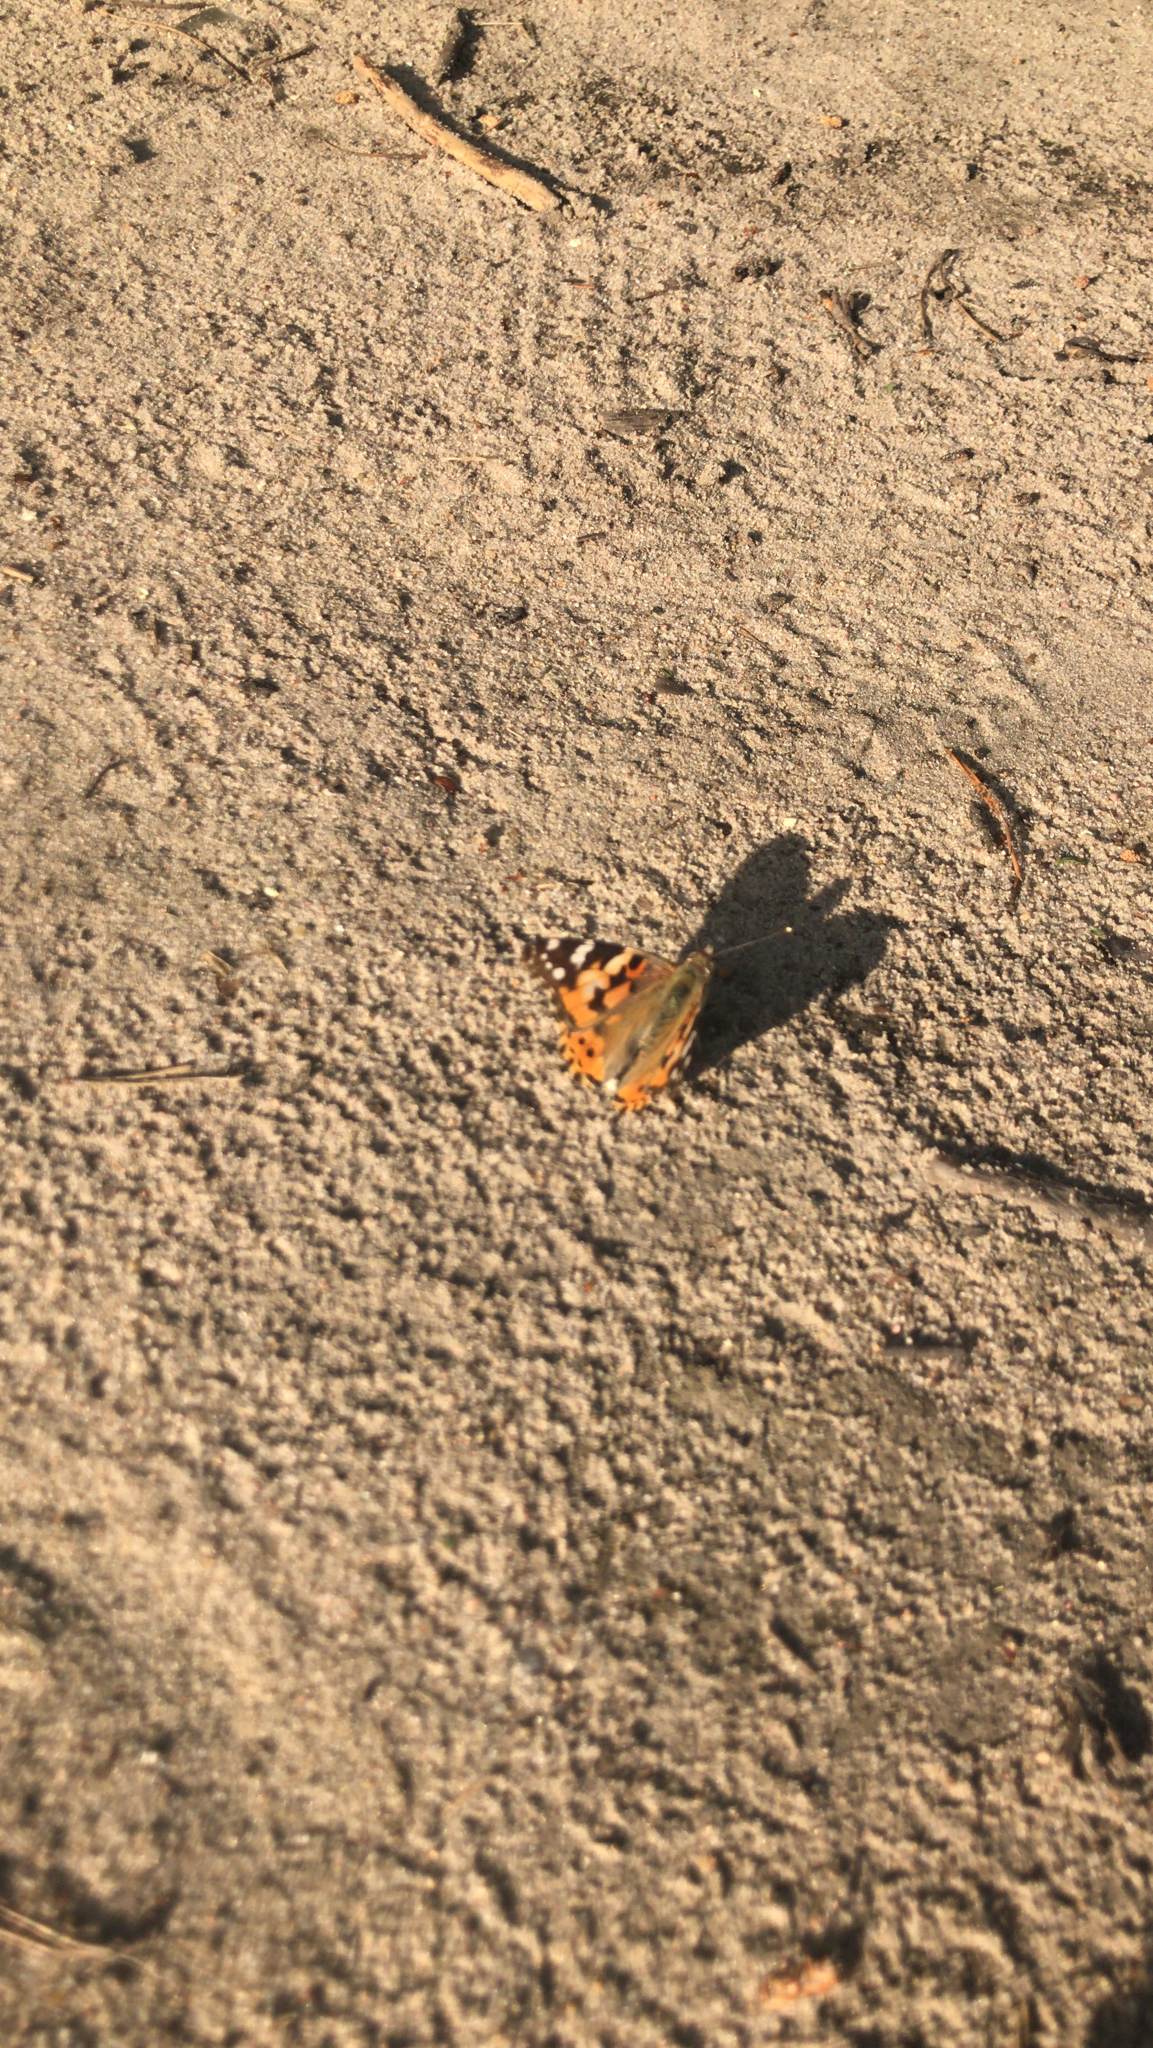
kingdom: Animalia
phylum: Arthropoda
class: Insecta
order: Lepidoptera
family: Nymphalidae
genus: Vanessa
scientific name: Vanessa cardui
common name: Painted lady
